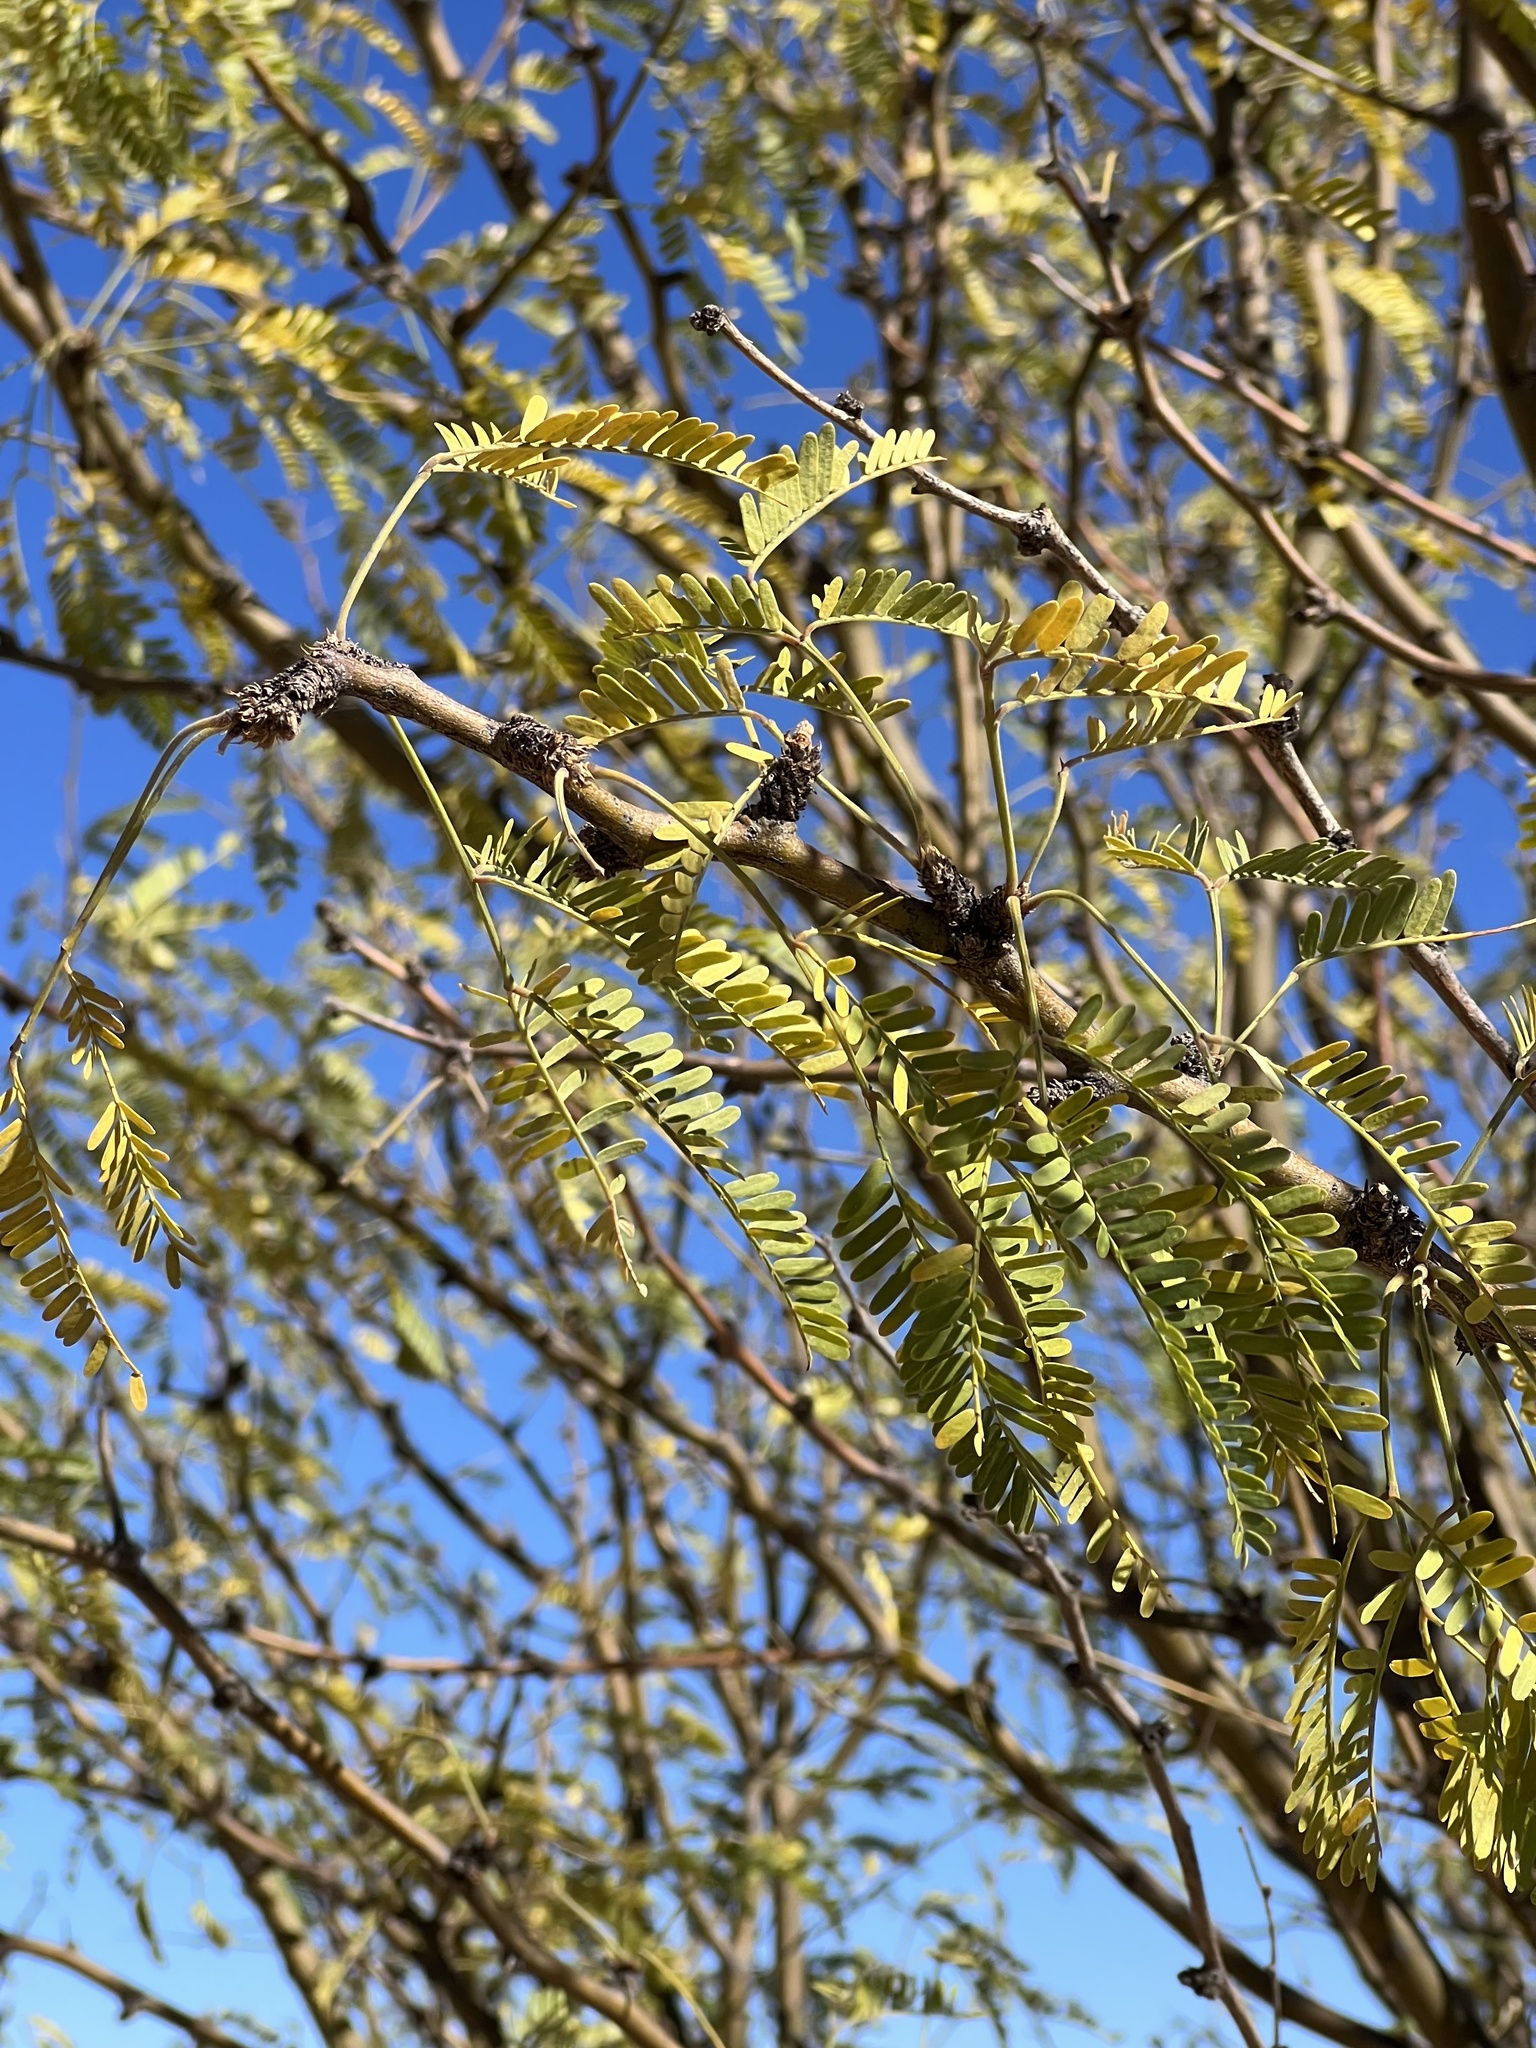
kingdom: Plantae
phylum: Tracheophyta
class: Magnoliopsida
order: Fabales
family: Fabaceae
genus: Prosopis
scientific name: Prosopis velutina
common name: Velvet mesquite
